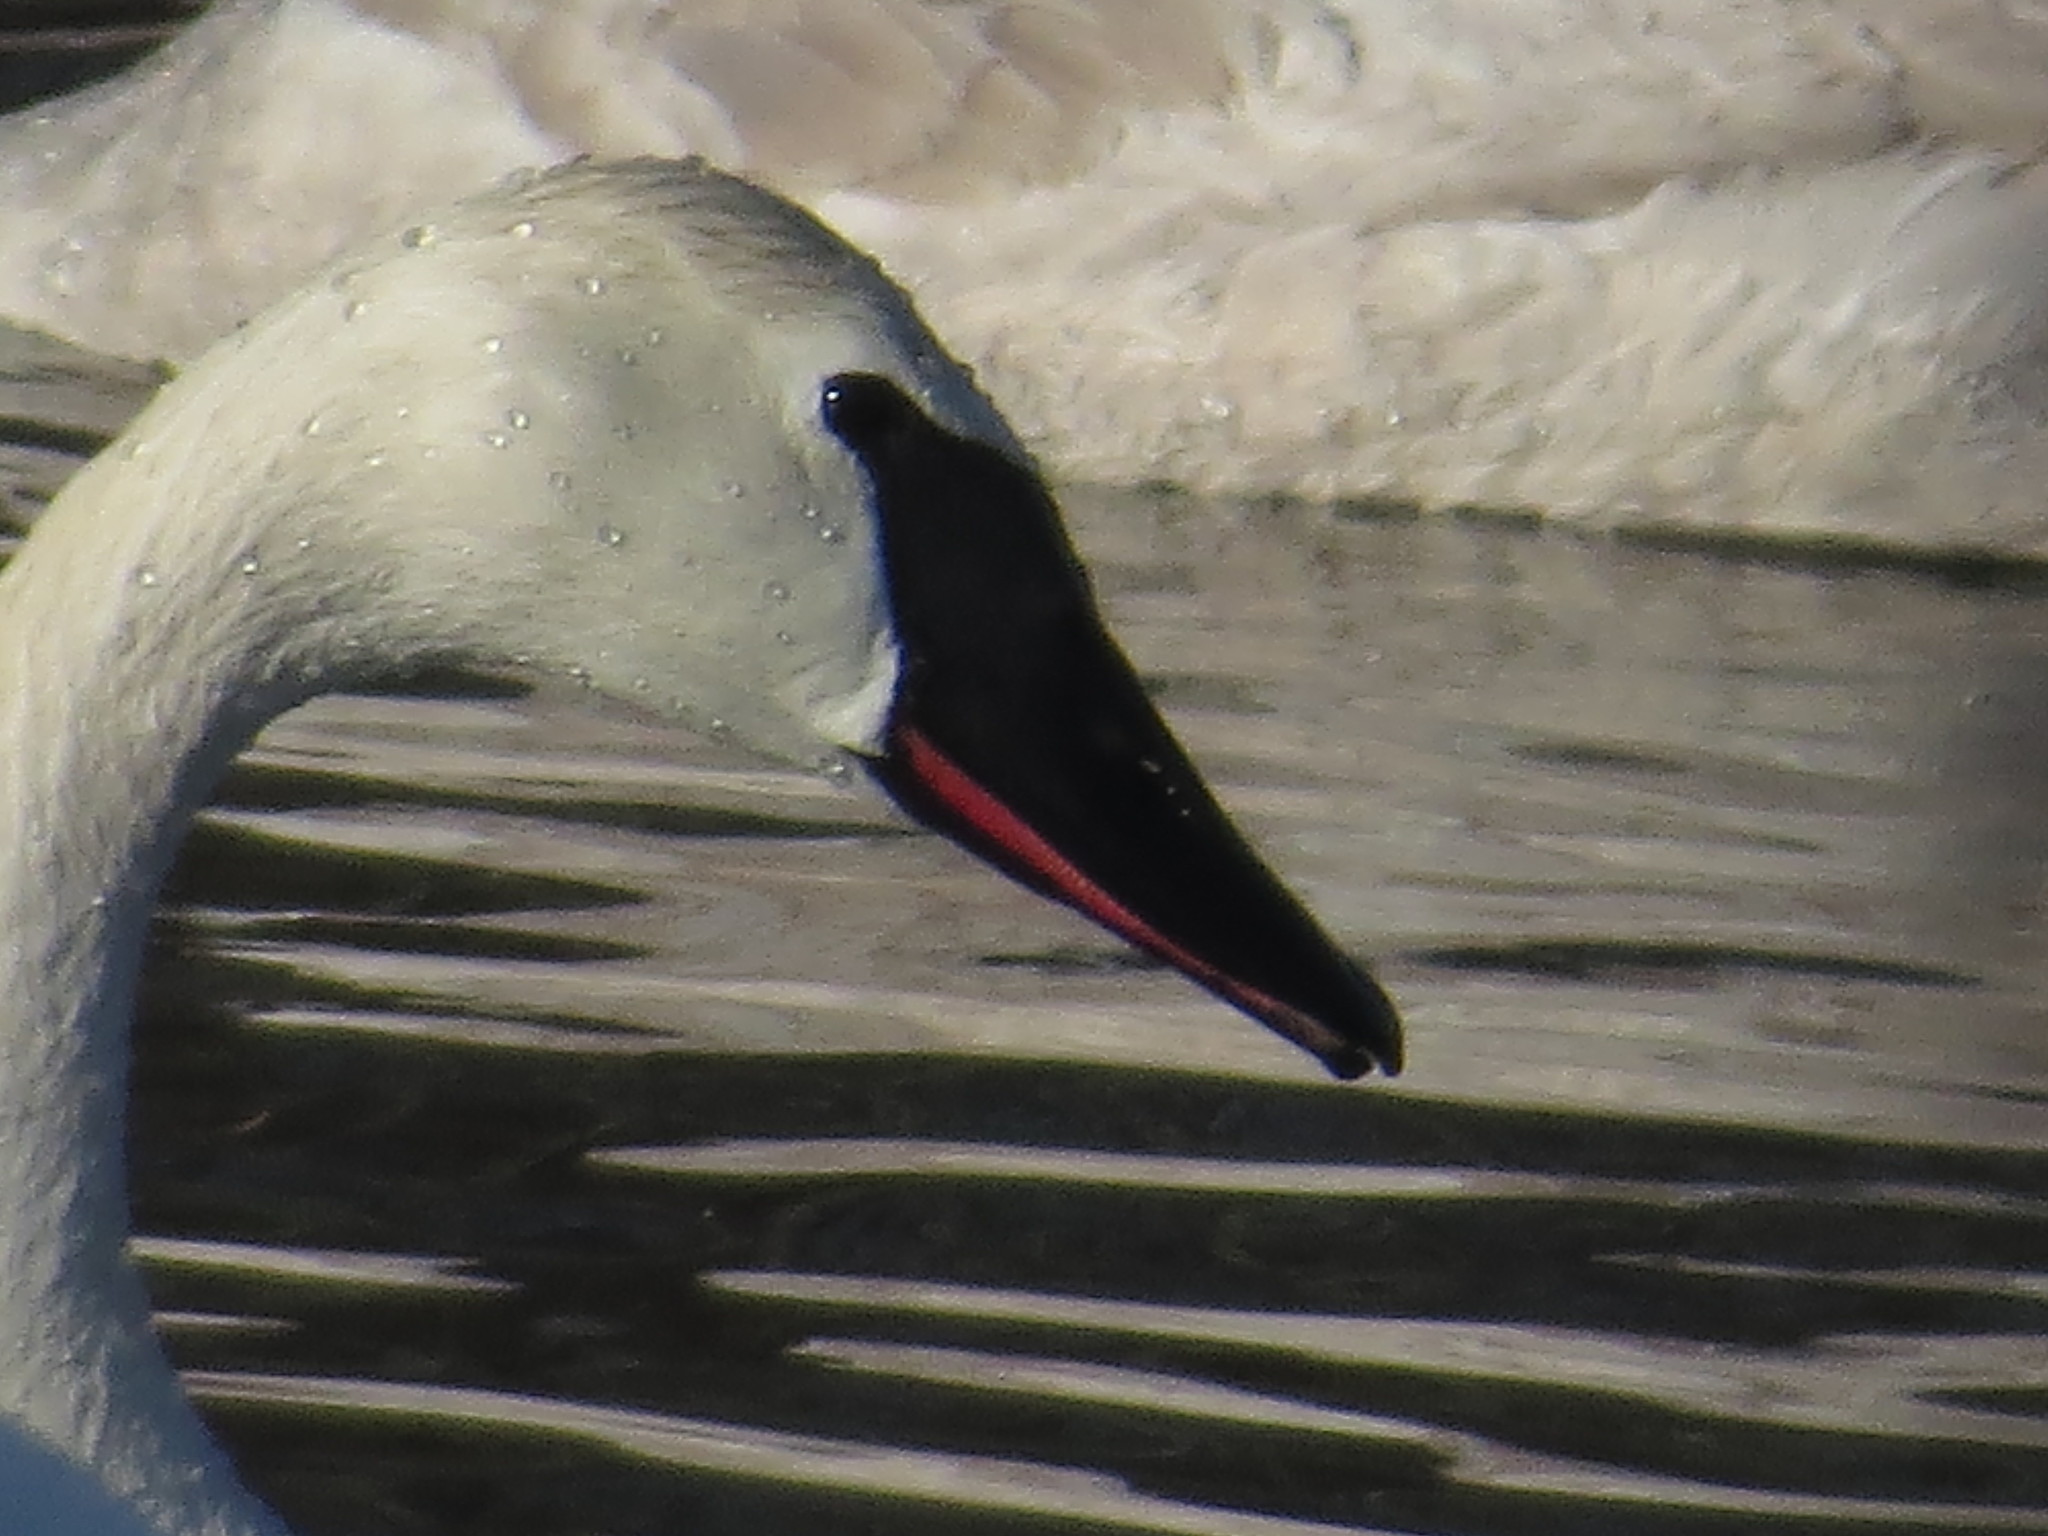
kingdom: Animalia
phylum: Chordata
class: Aves
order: Anseriformes
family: Anatidae
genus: Cygnus
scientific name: Cygnus buccinator
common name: Trumpeter swan
